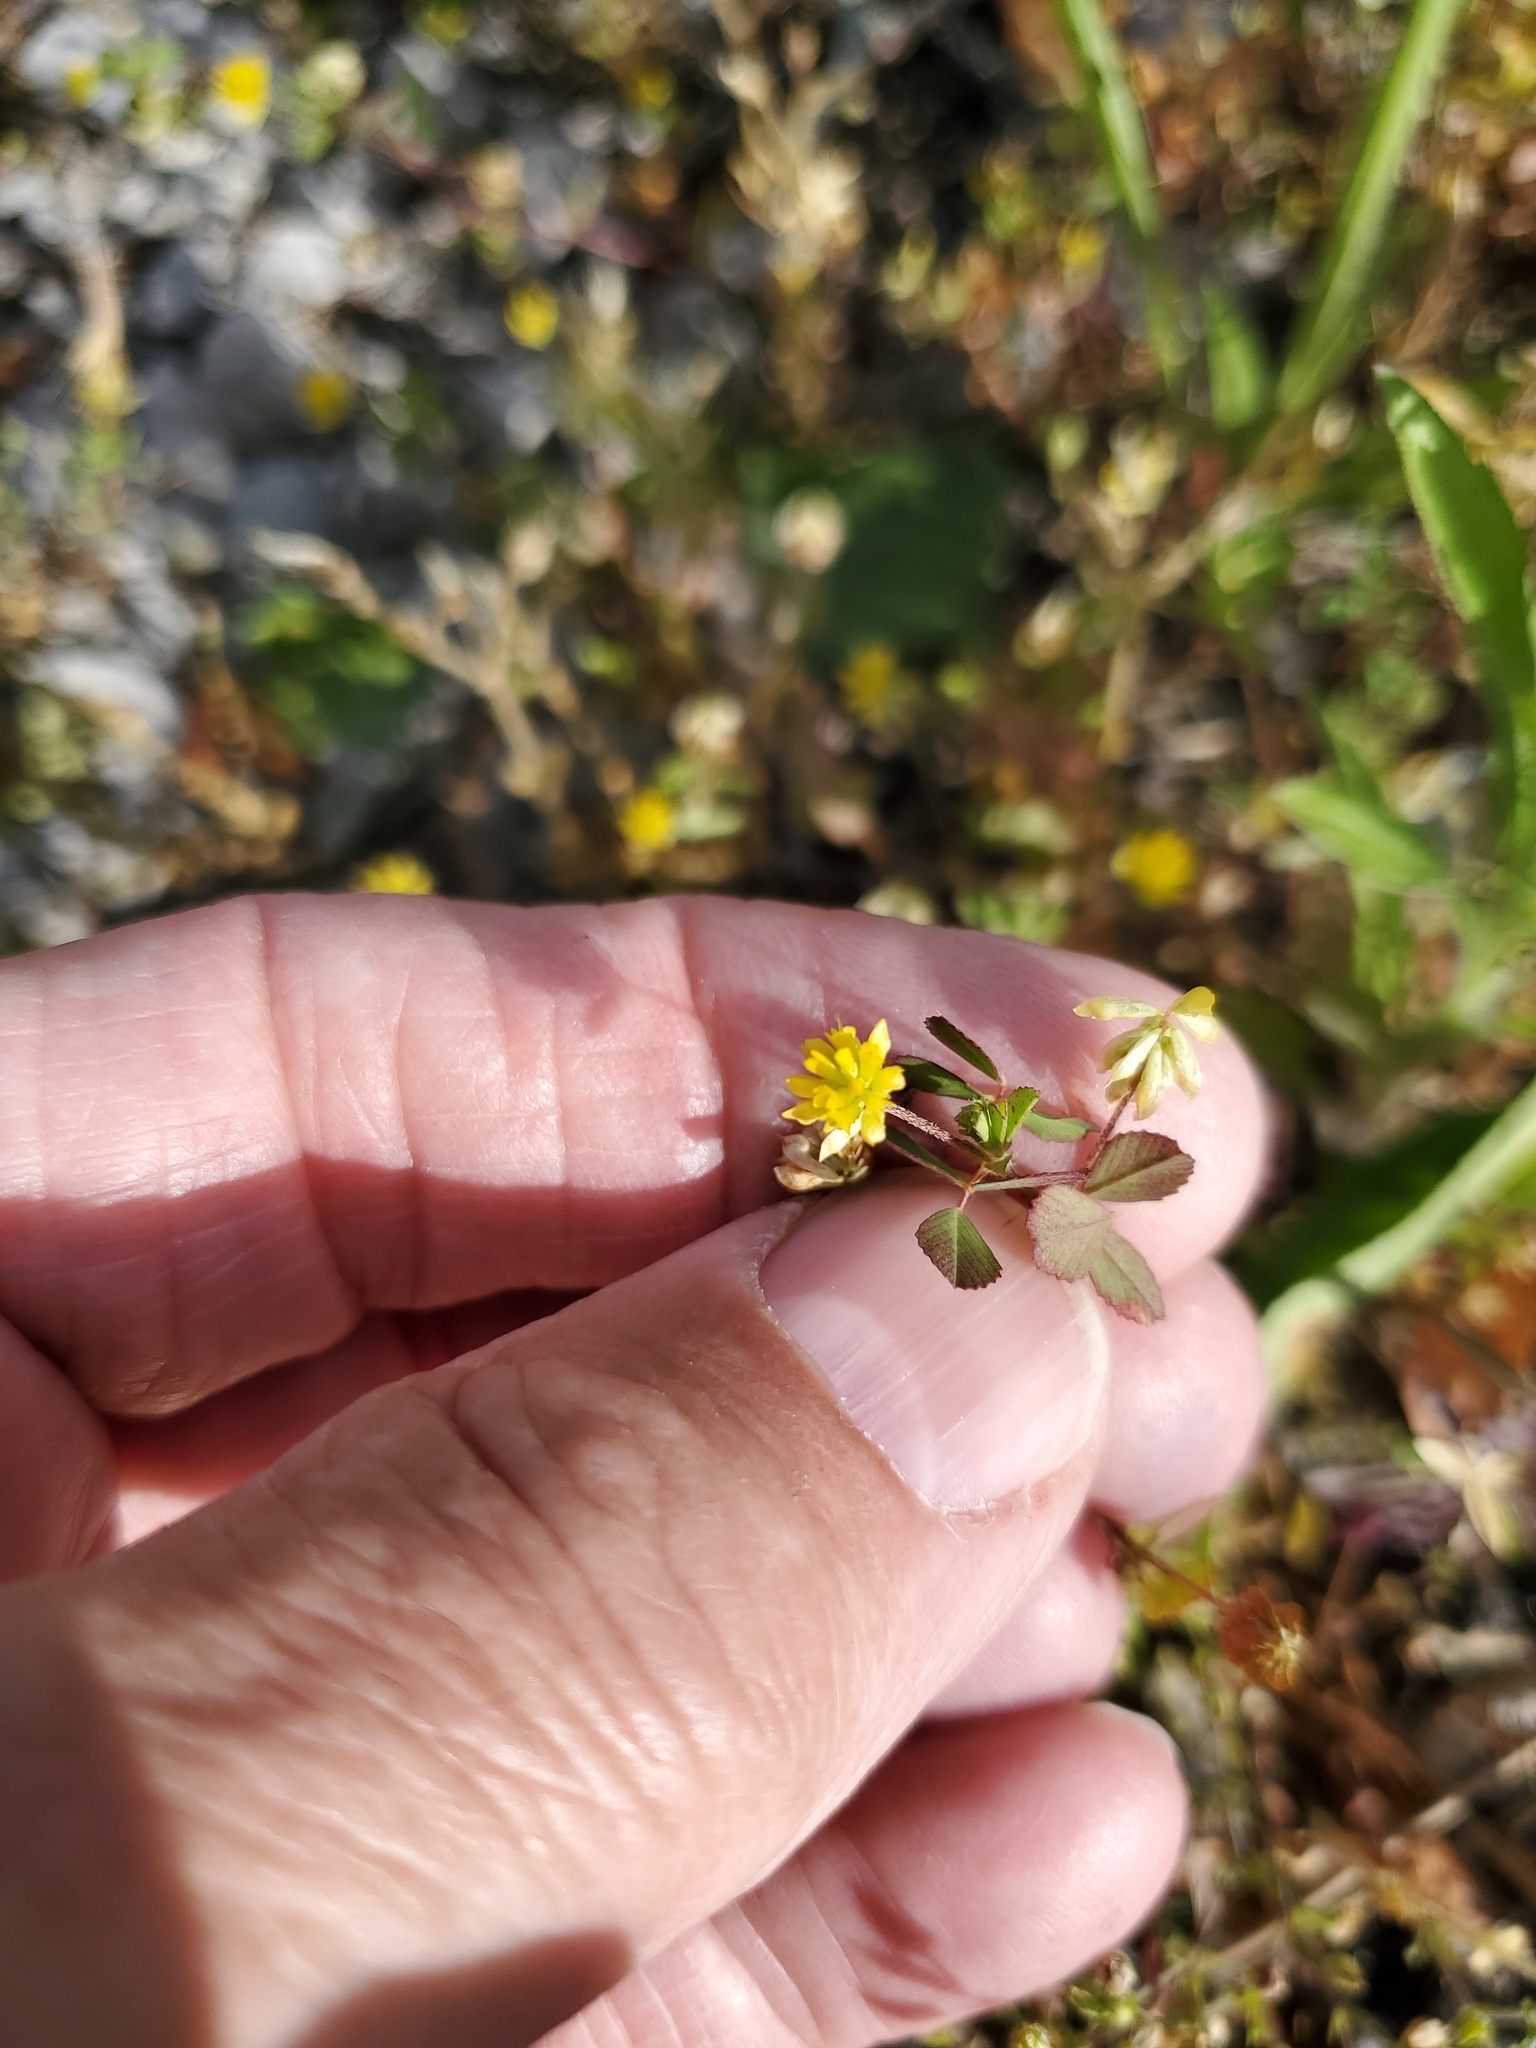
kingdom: Plantae
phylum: Tracheophyta
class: Magnoliopsida
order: Fabales
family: Fabaceae
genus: Trifolium
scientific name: Trifolium dubium
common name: Suckling clover
